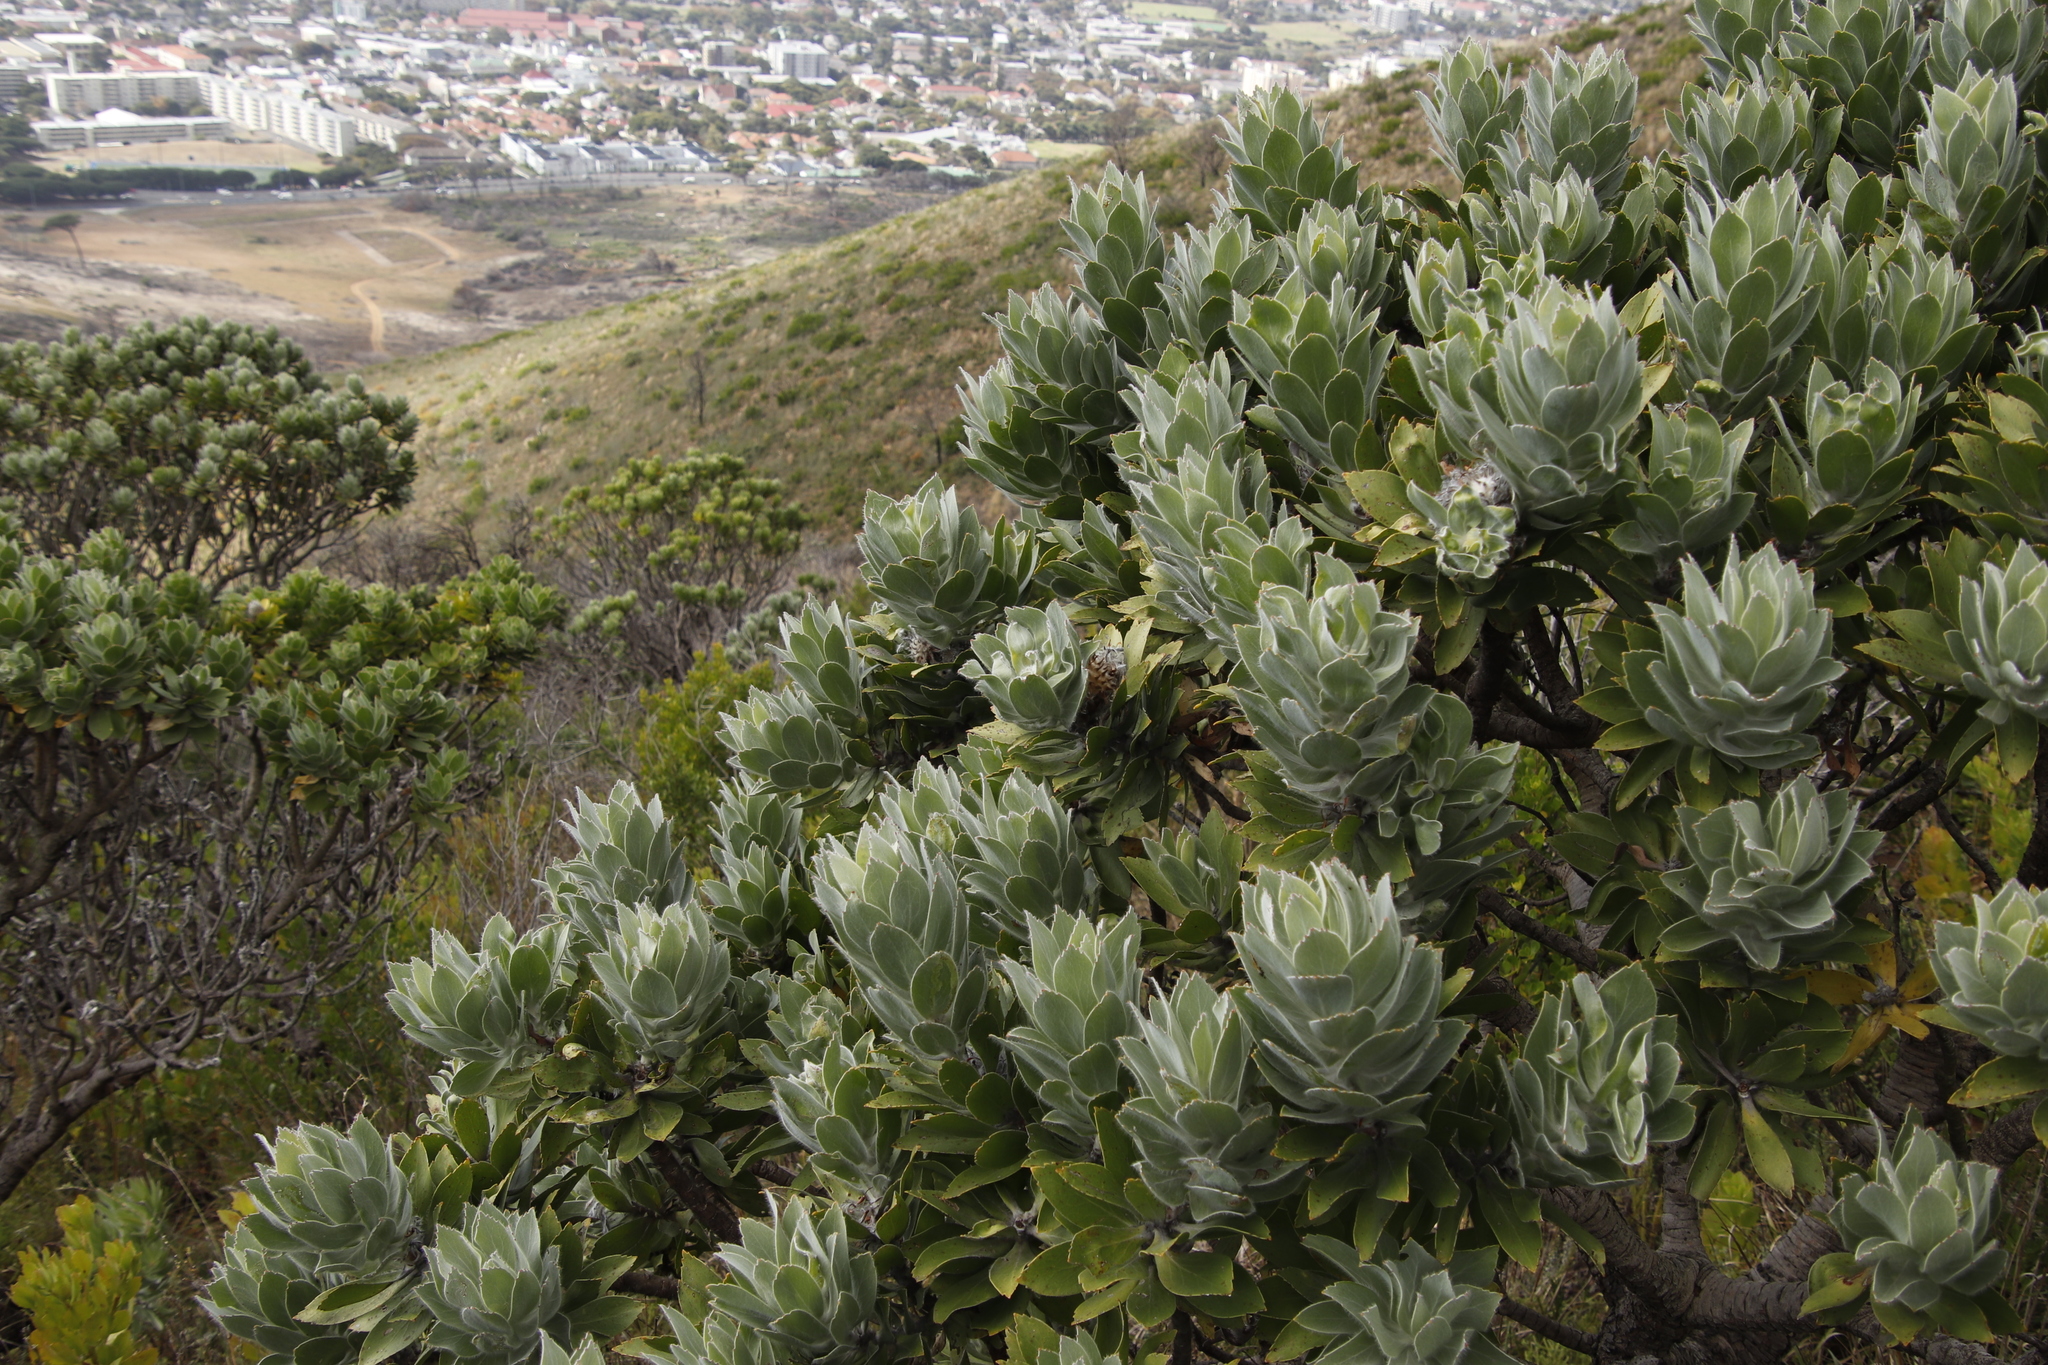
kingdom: Plantae
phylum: Tracheophyta
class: Magnoliopsida
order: Proteales
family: Proteaceae
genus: Leucospermum
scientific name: Leucospermum conocarpodendron
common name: Tree pincushion
